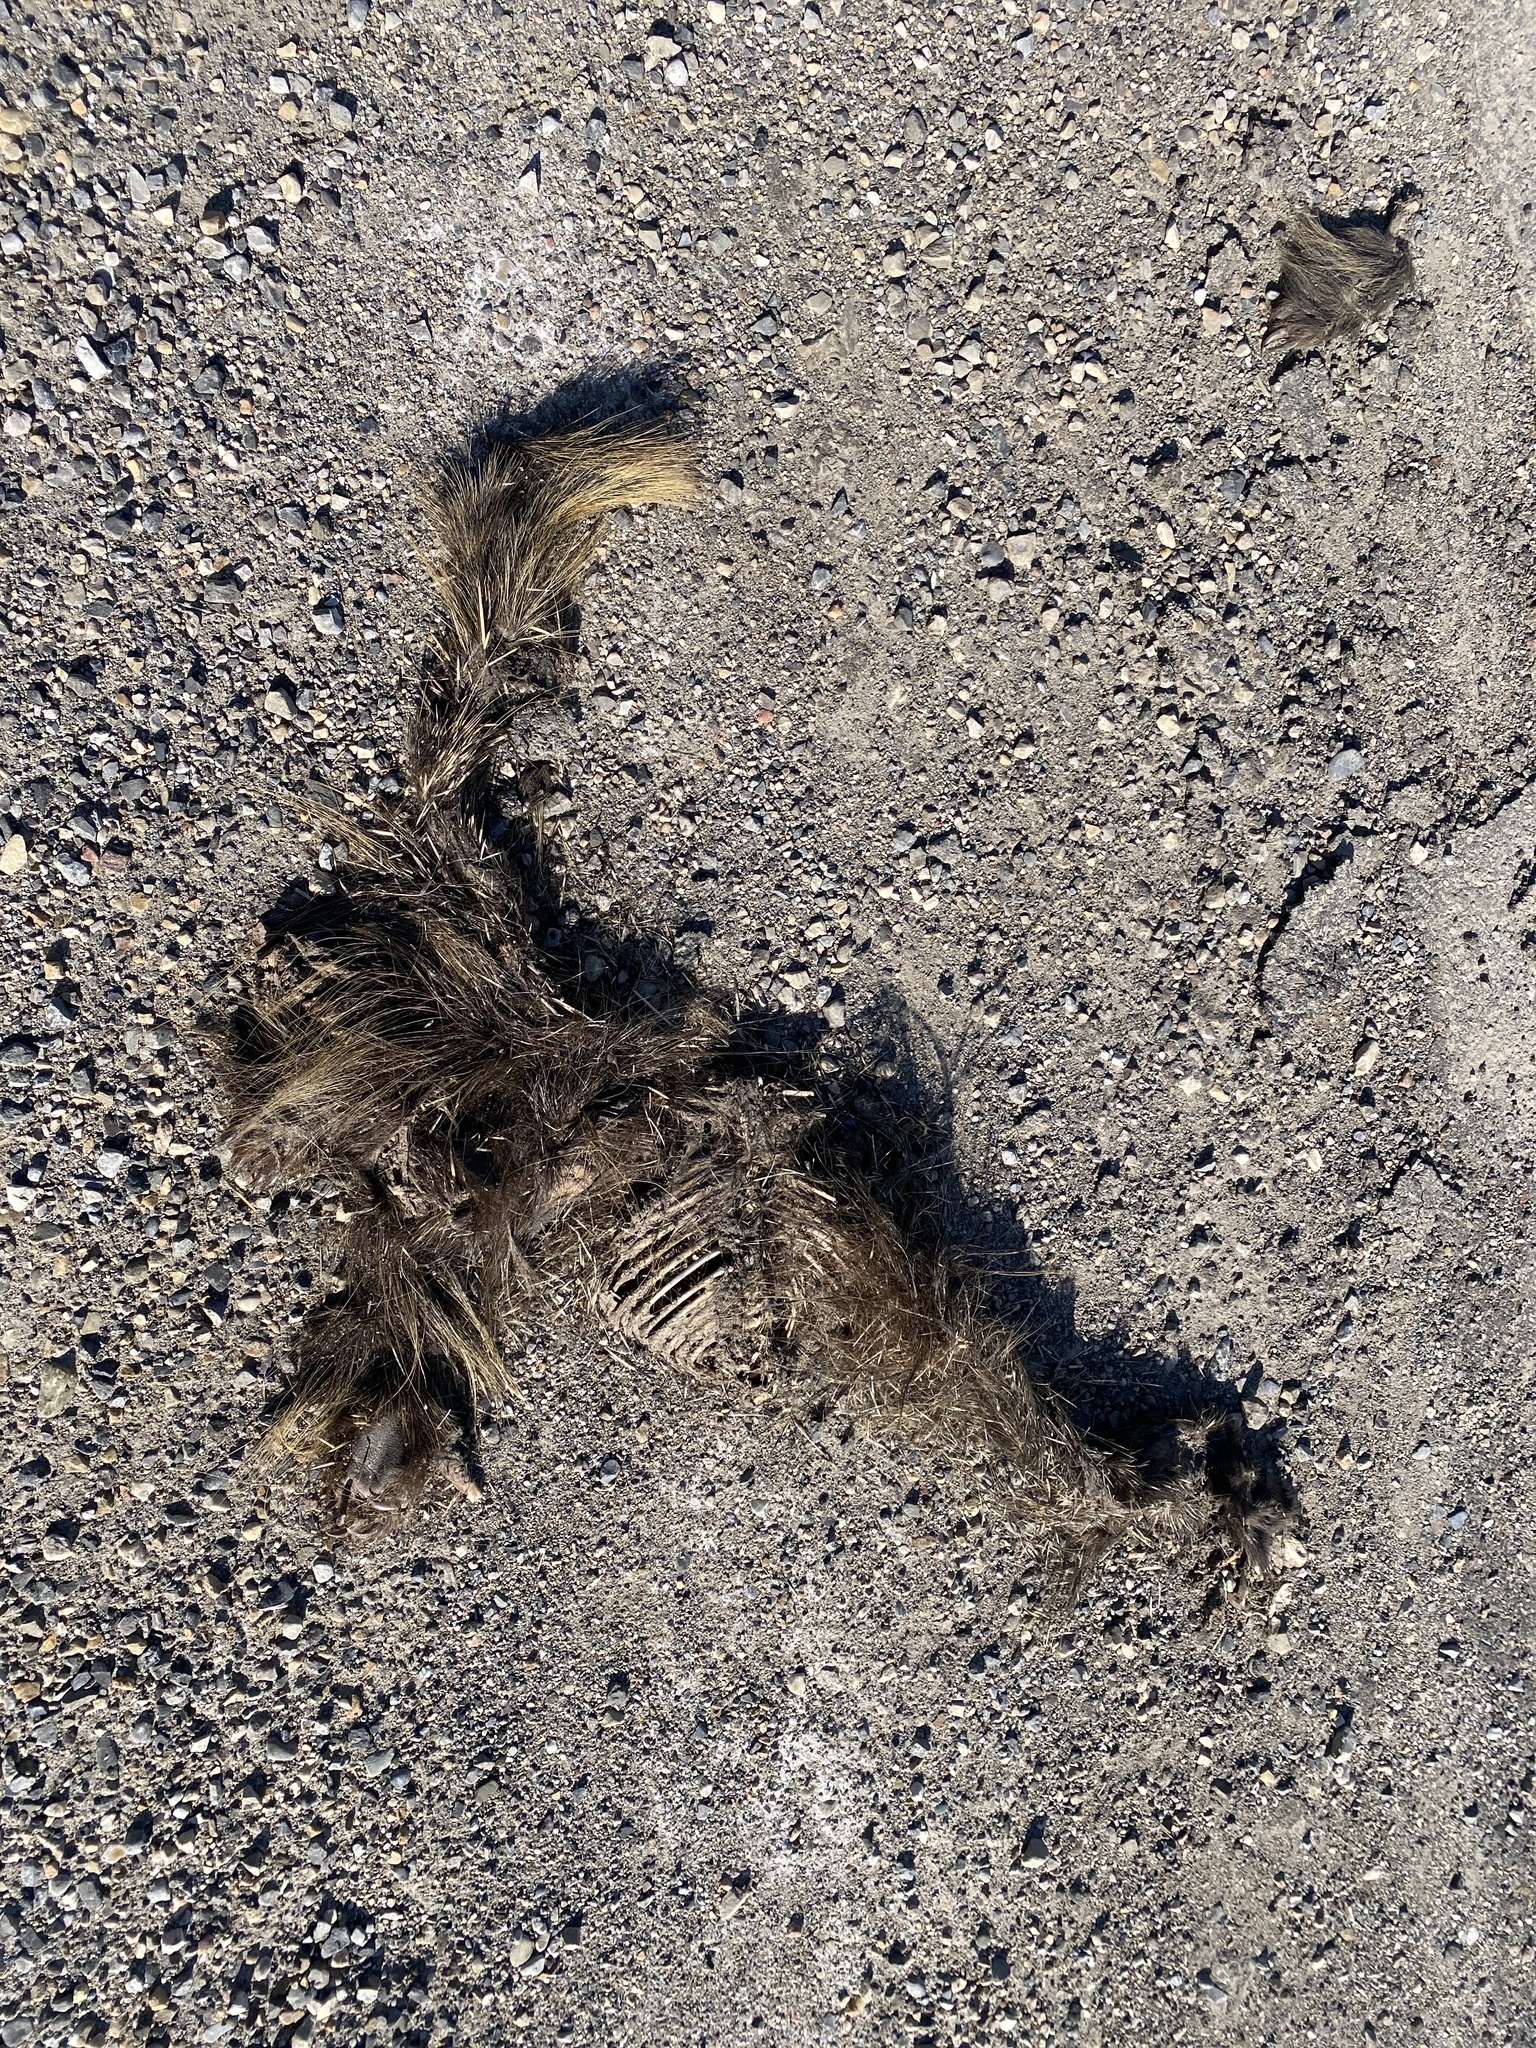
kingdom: Animalia
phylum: Chordata
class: Mammalia
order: Rodentia
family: Erethizontidae
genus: Erethizon
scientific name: Erethizon dorsatus
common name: North american porcupine
